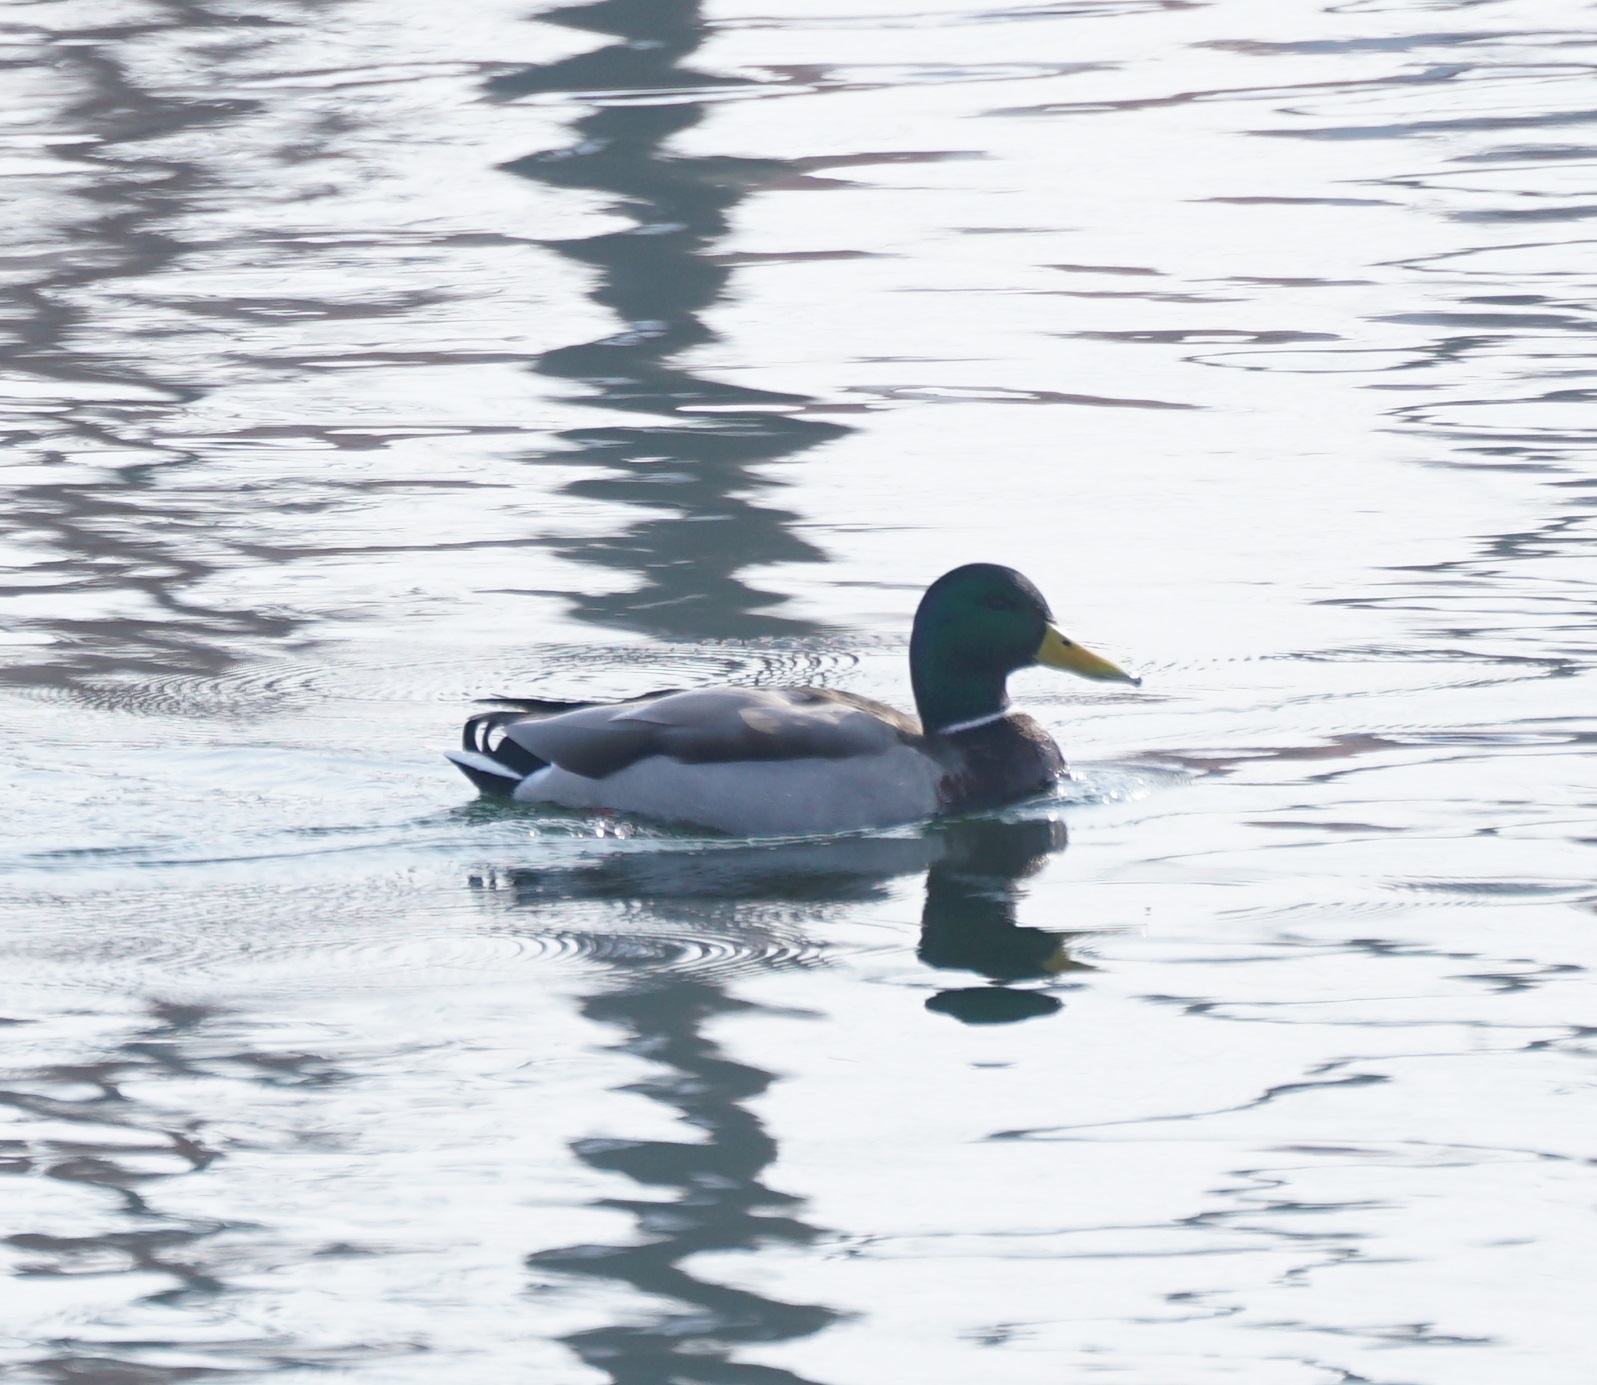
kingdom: Animalia
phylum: Chordata
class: Aves
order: Anseriformes
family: Anatidae
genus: Anas
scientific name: Anas platyrhynchos
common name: Mallard
